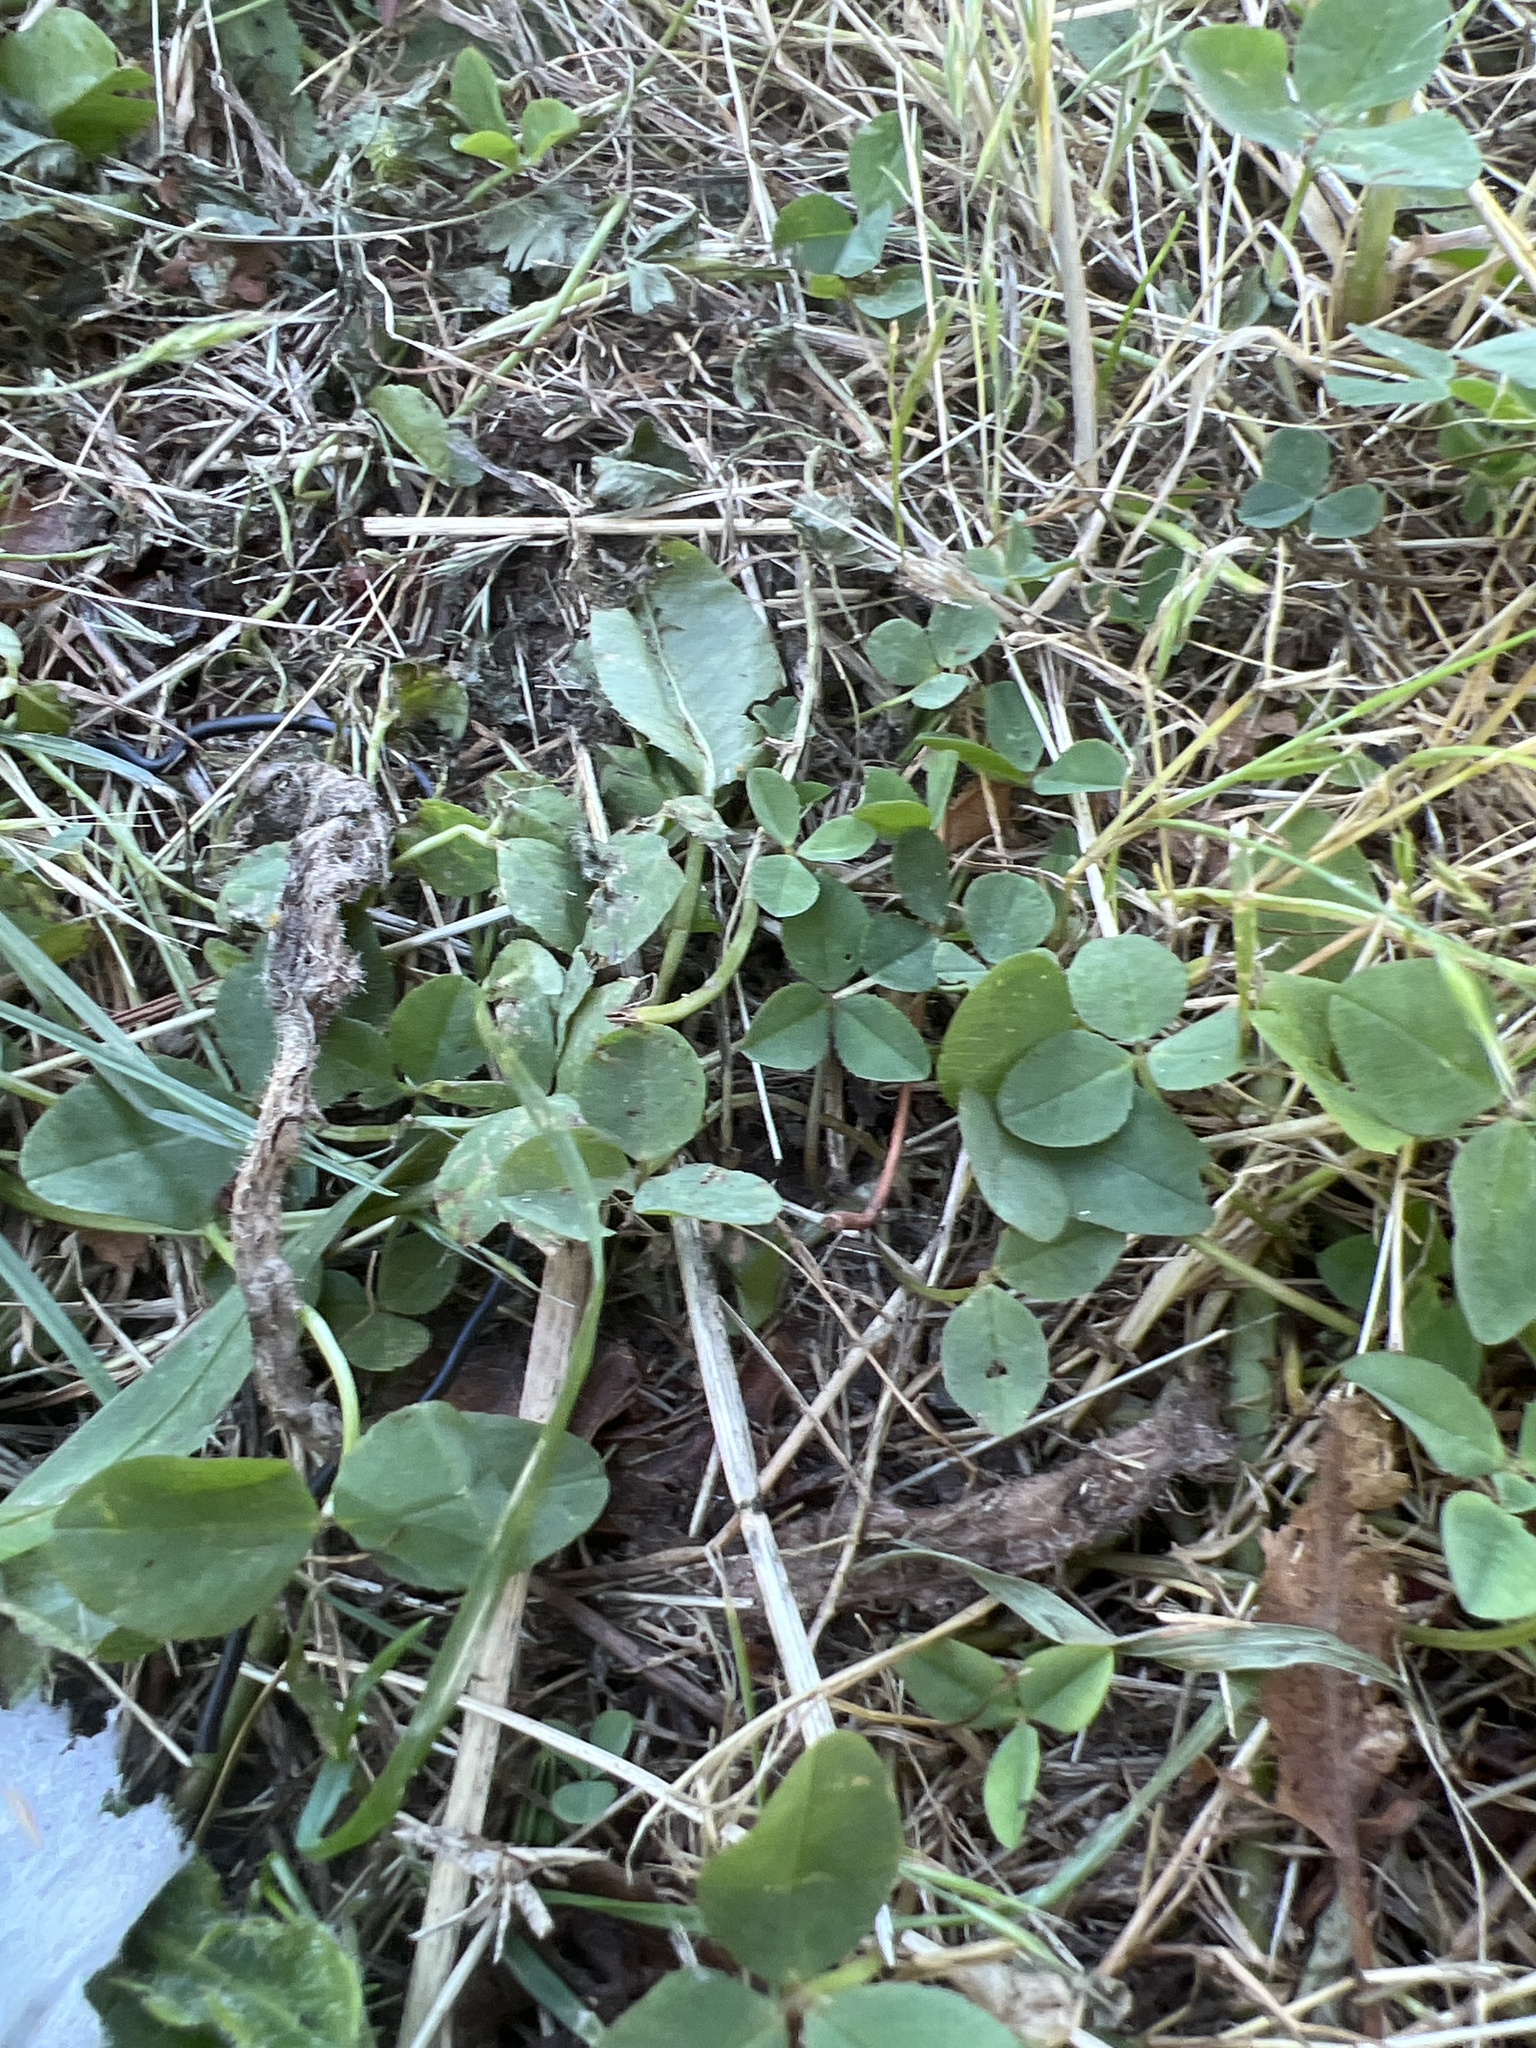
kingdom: Plantae
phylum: Tracheophyta
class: Magnoliopsida
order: Fabales
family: Fabaceae
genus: Trifolium
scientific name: Trifolium repens
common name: White clover
